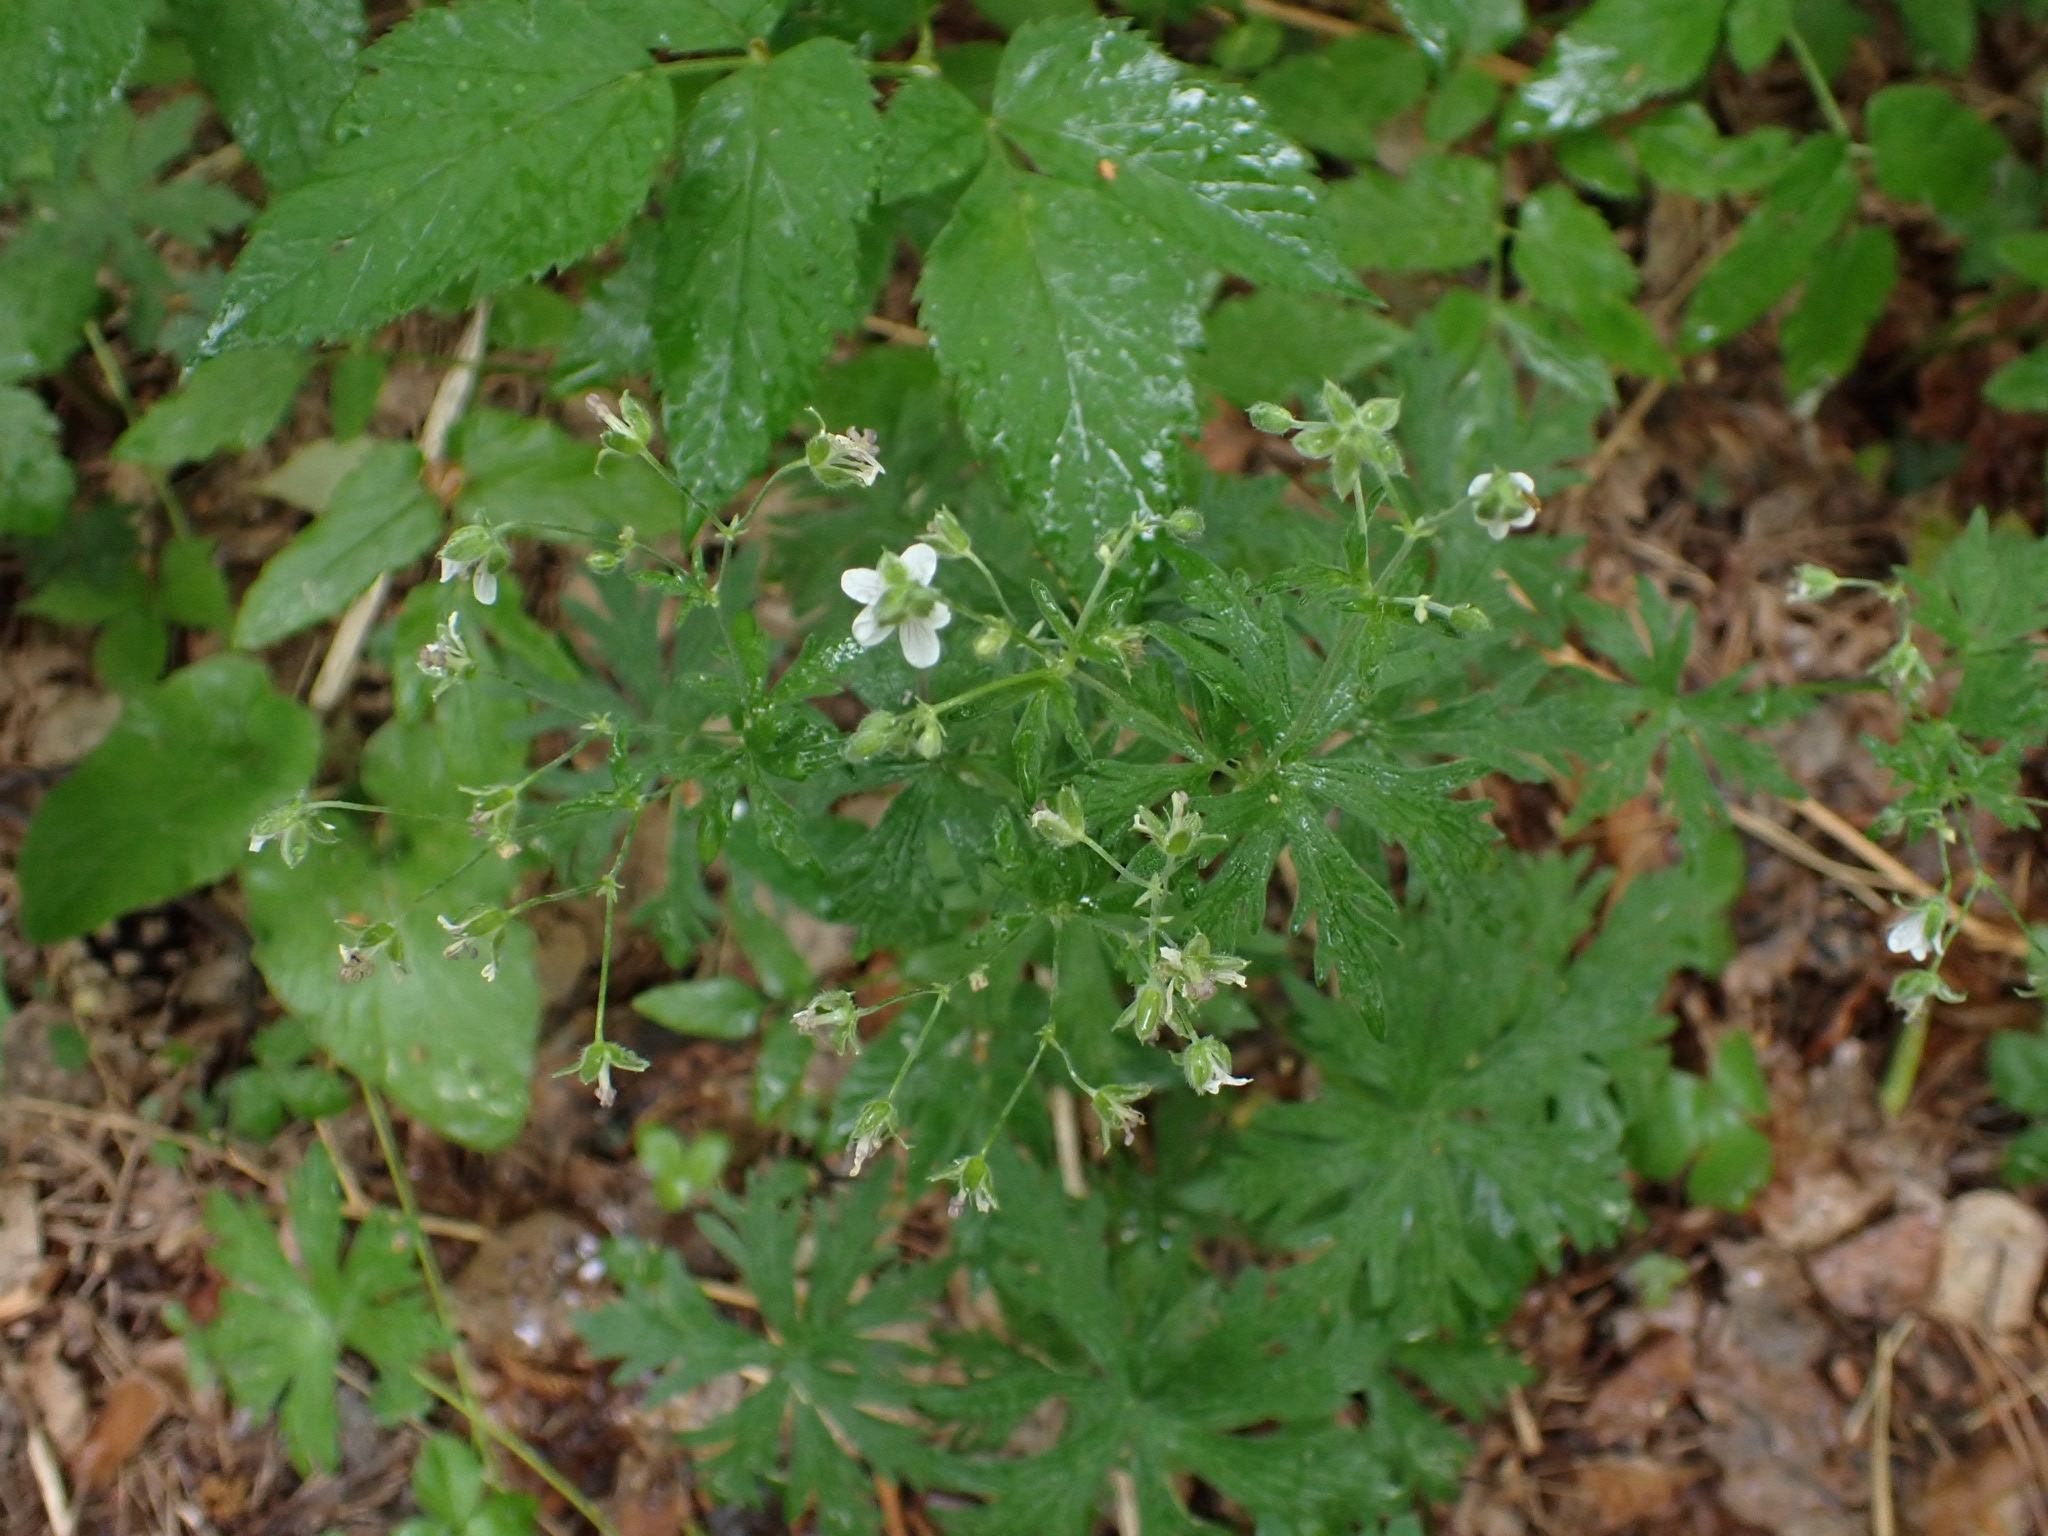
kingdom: Plantae
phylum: Tracheophyta
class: Magnoliopsida
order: Geraniales
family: Geraniaceae
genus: Geranium
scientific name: Geranium pseudosibiricum
